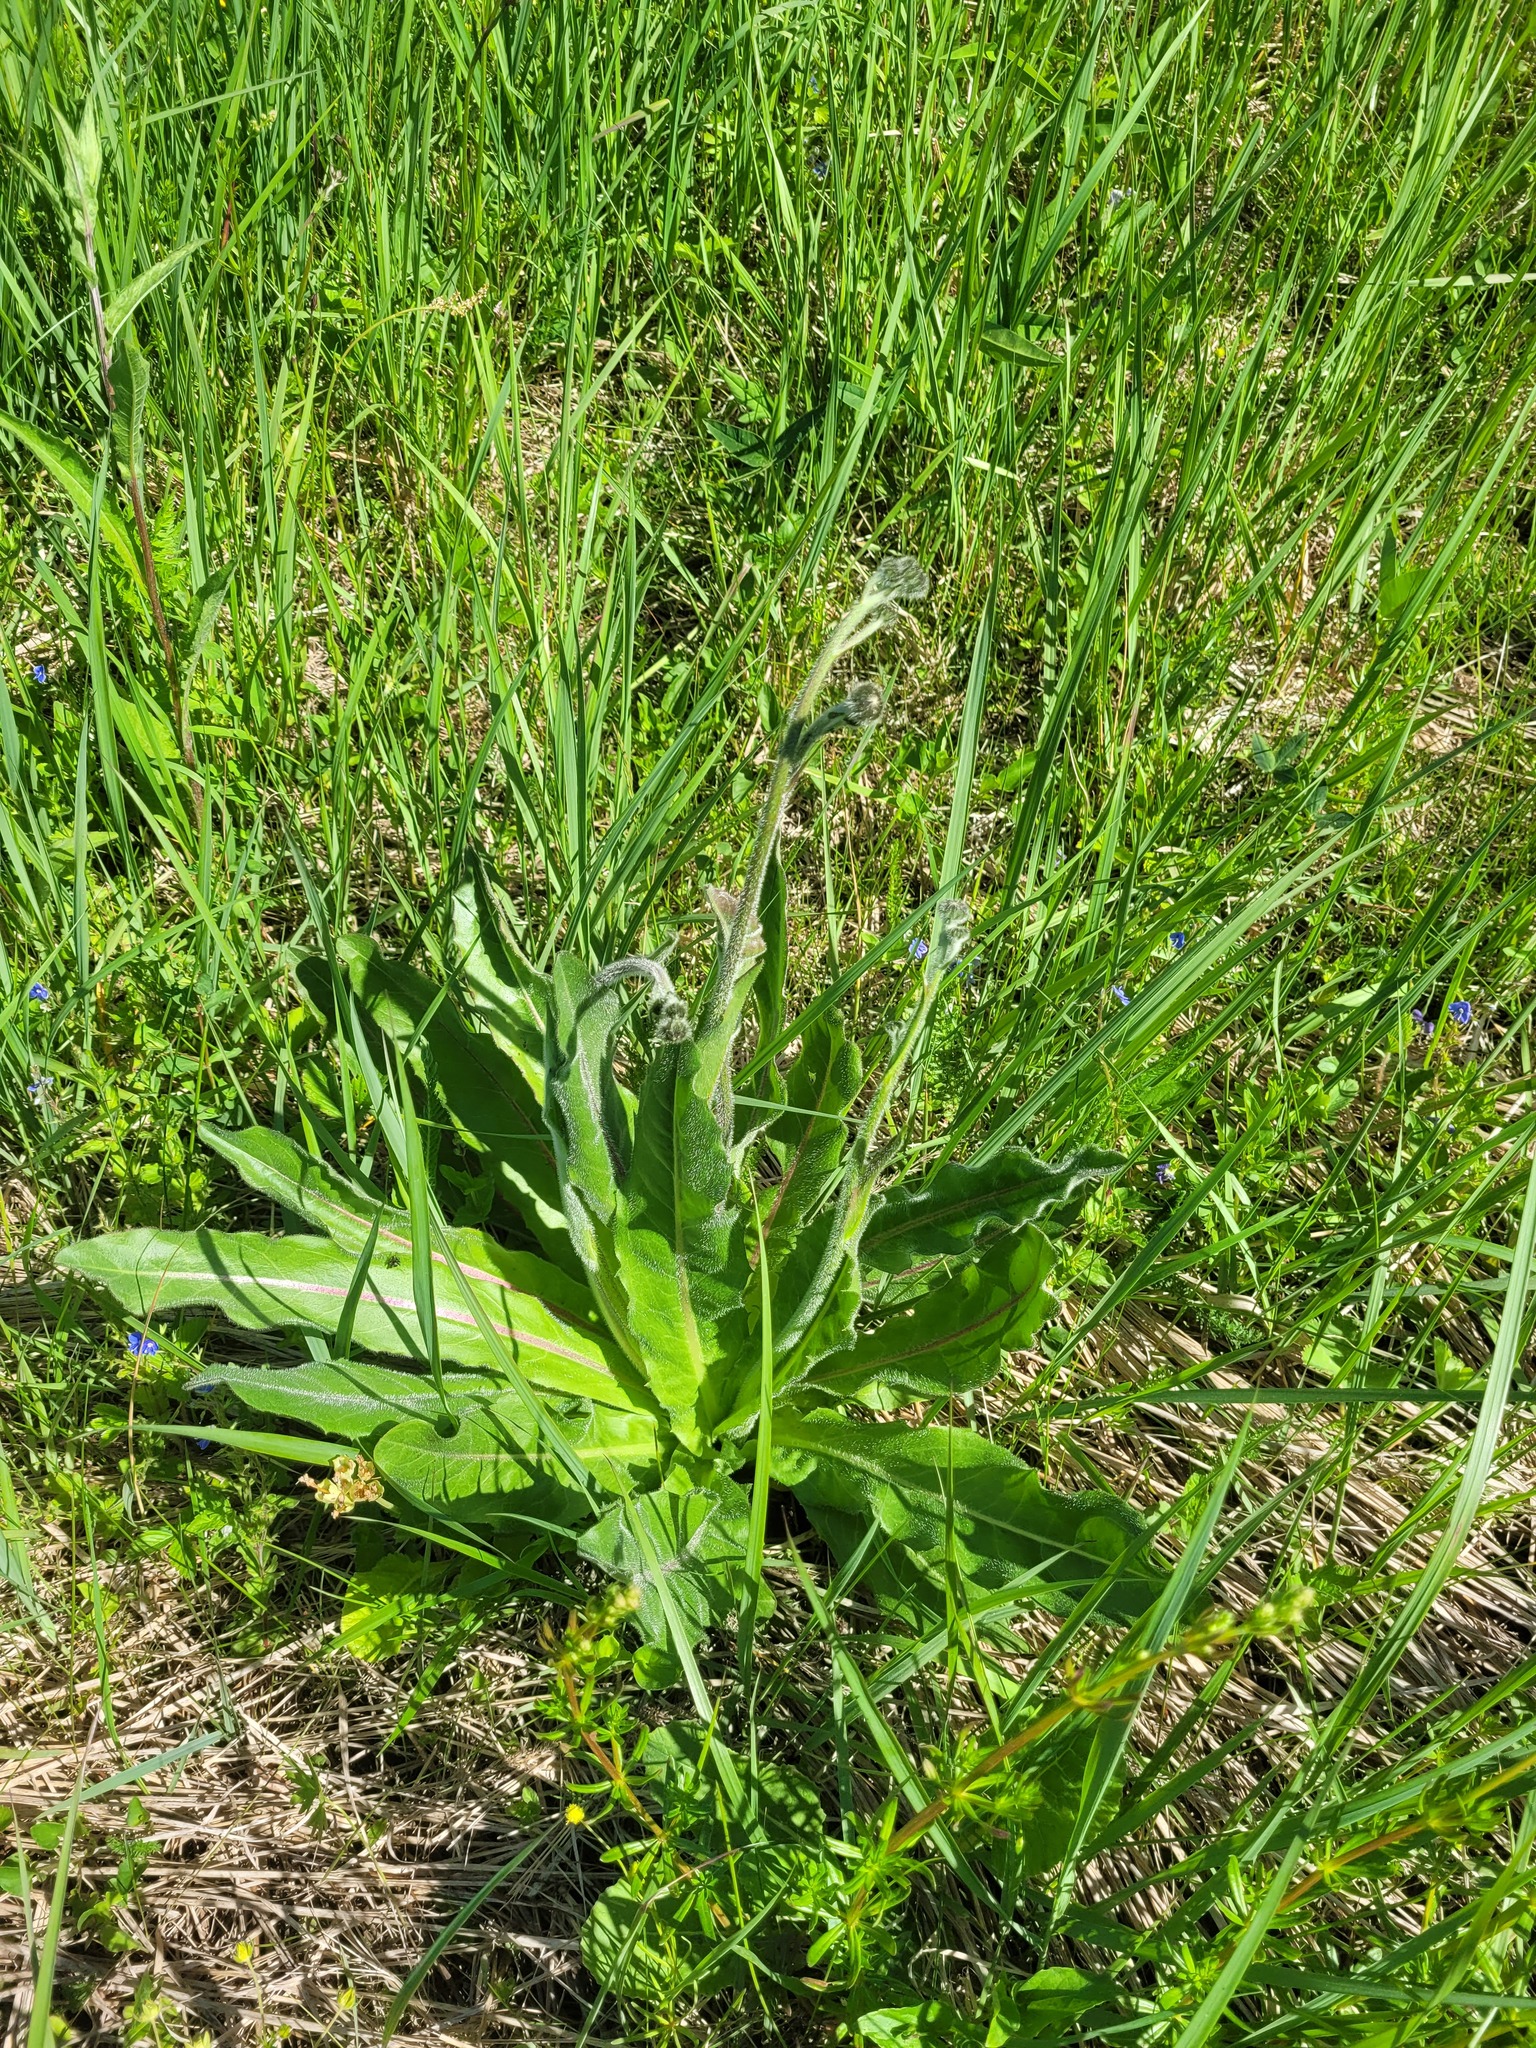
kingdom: Plantae
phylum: Tracheophyta
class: Magnoliopsida
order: Asterales
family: Asteraceae
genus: Trommsdorffia
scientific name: Trommsdorffia maculata
